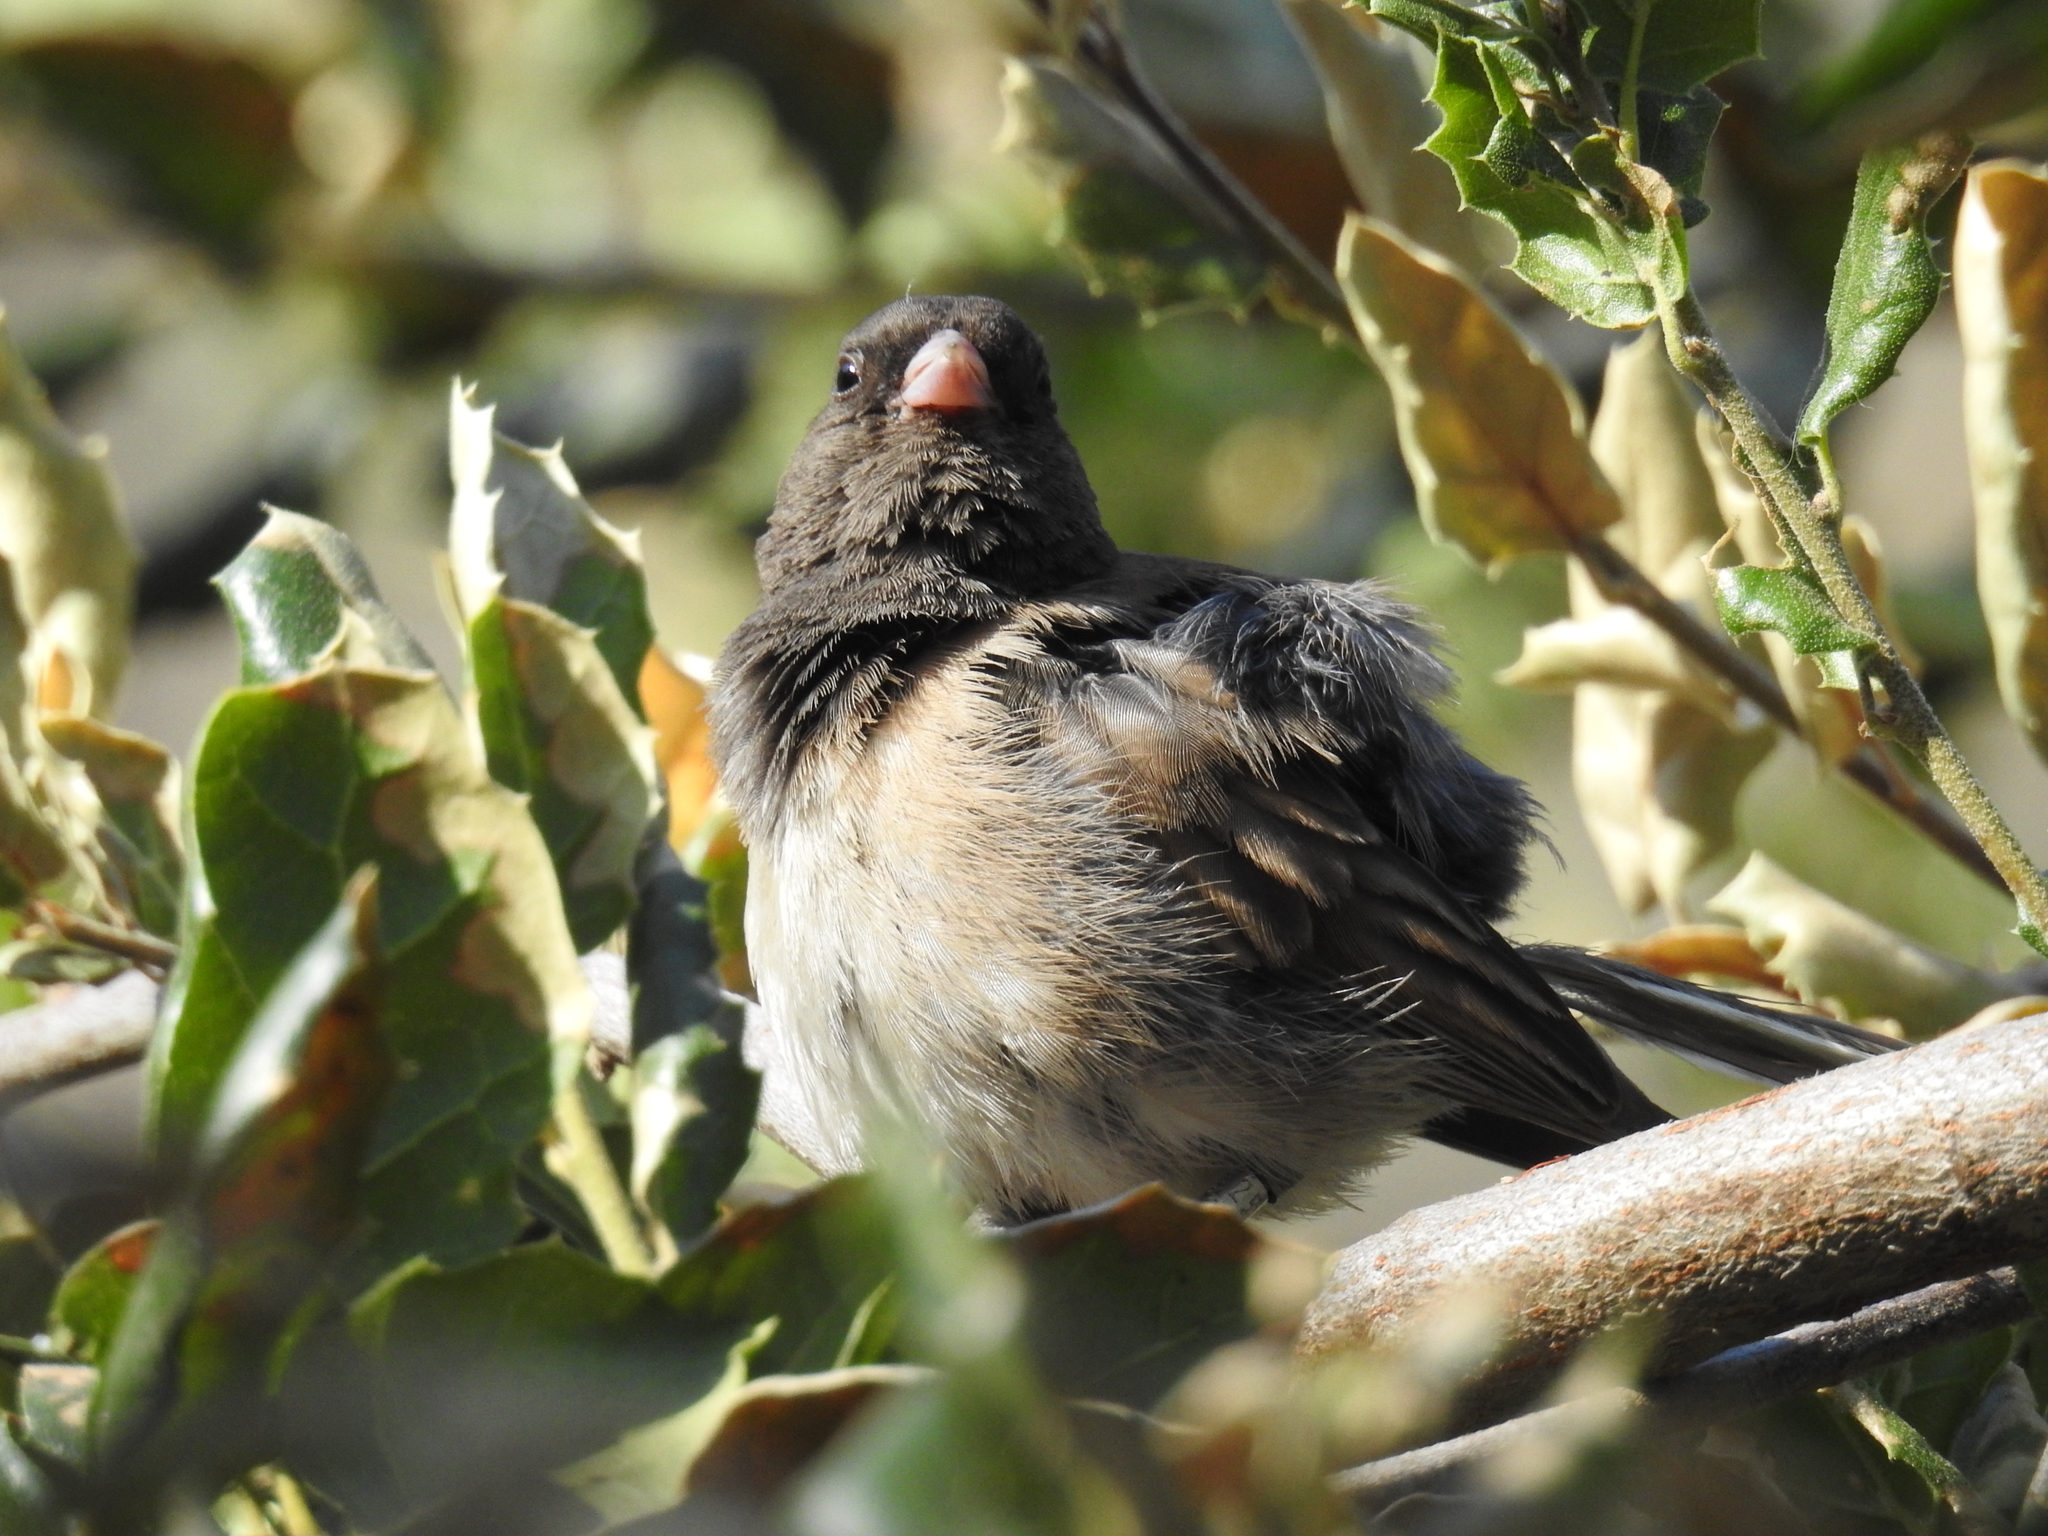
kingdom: Animalia
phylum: Chordata
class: Aves
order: Passeriformes
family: Passerellidae
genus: Junco
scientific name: Junco hyemalis
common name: Dark-eyed junco
